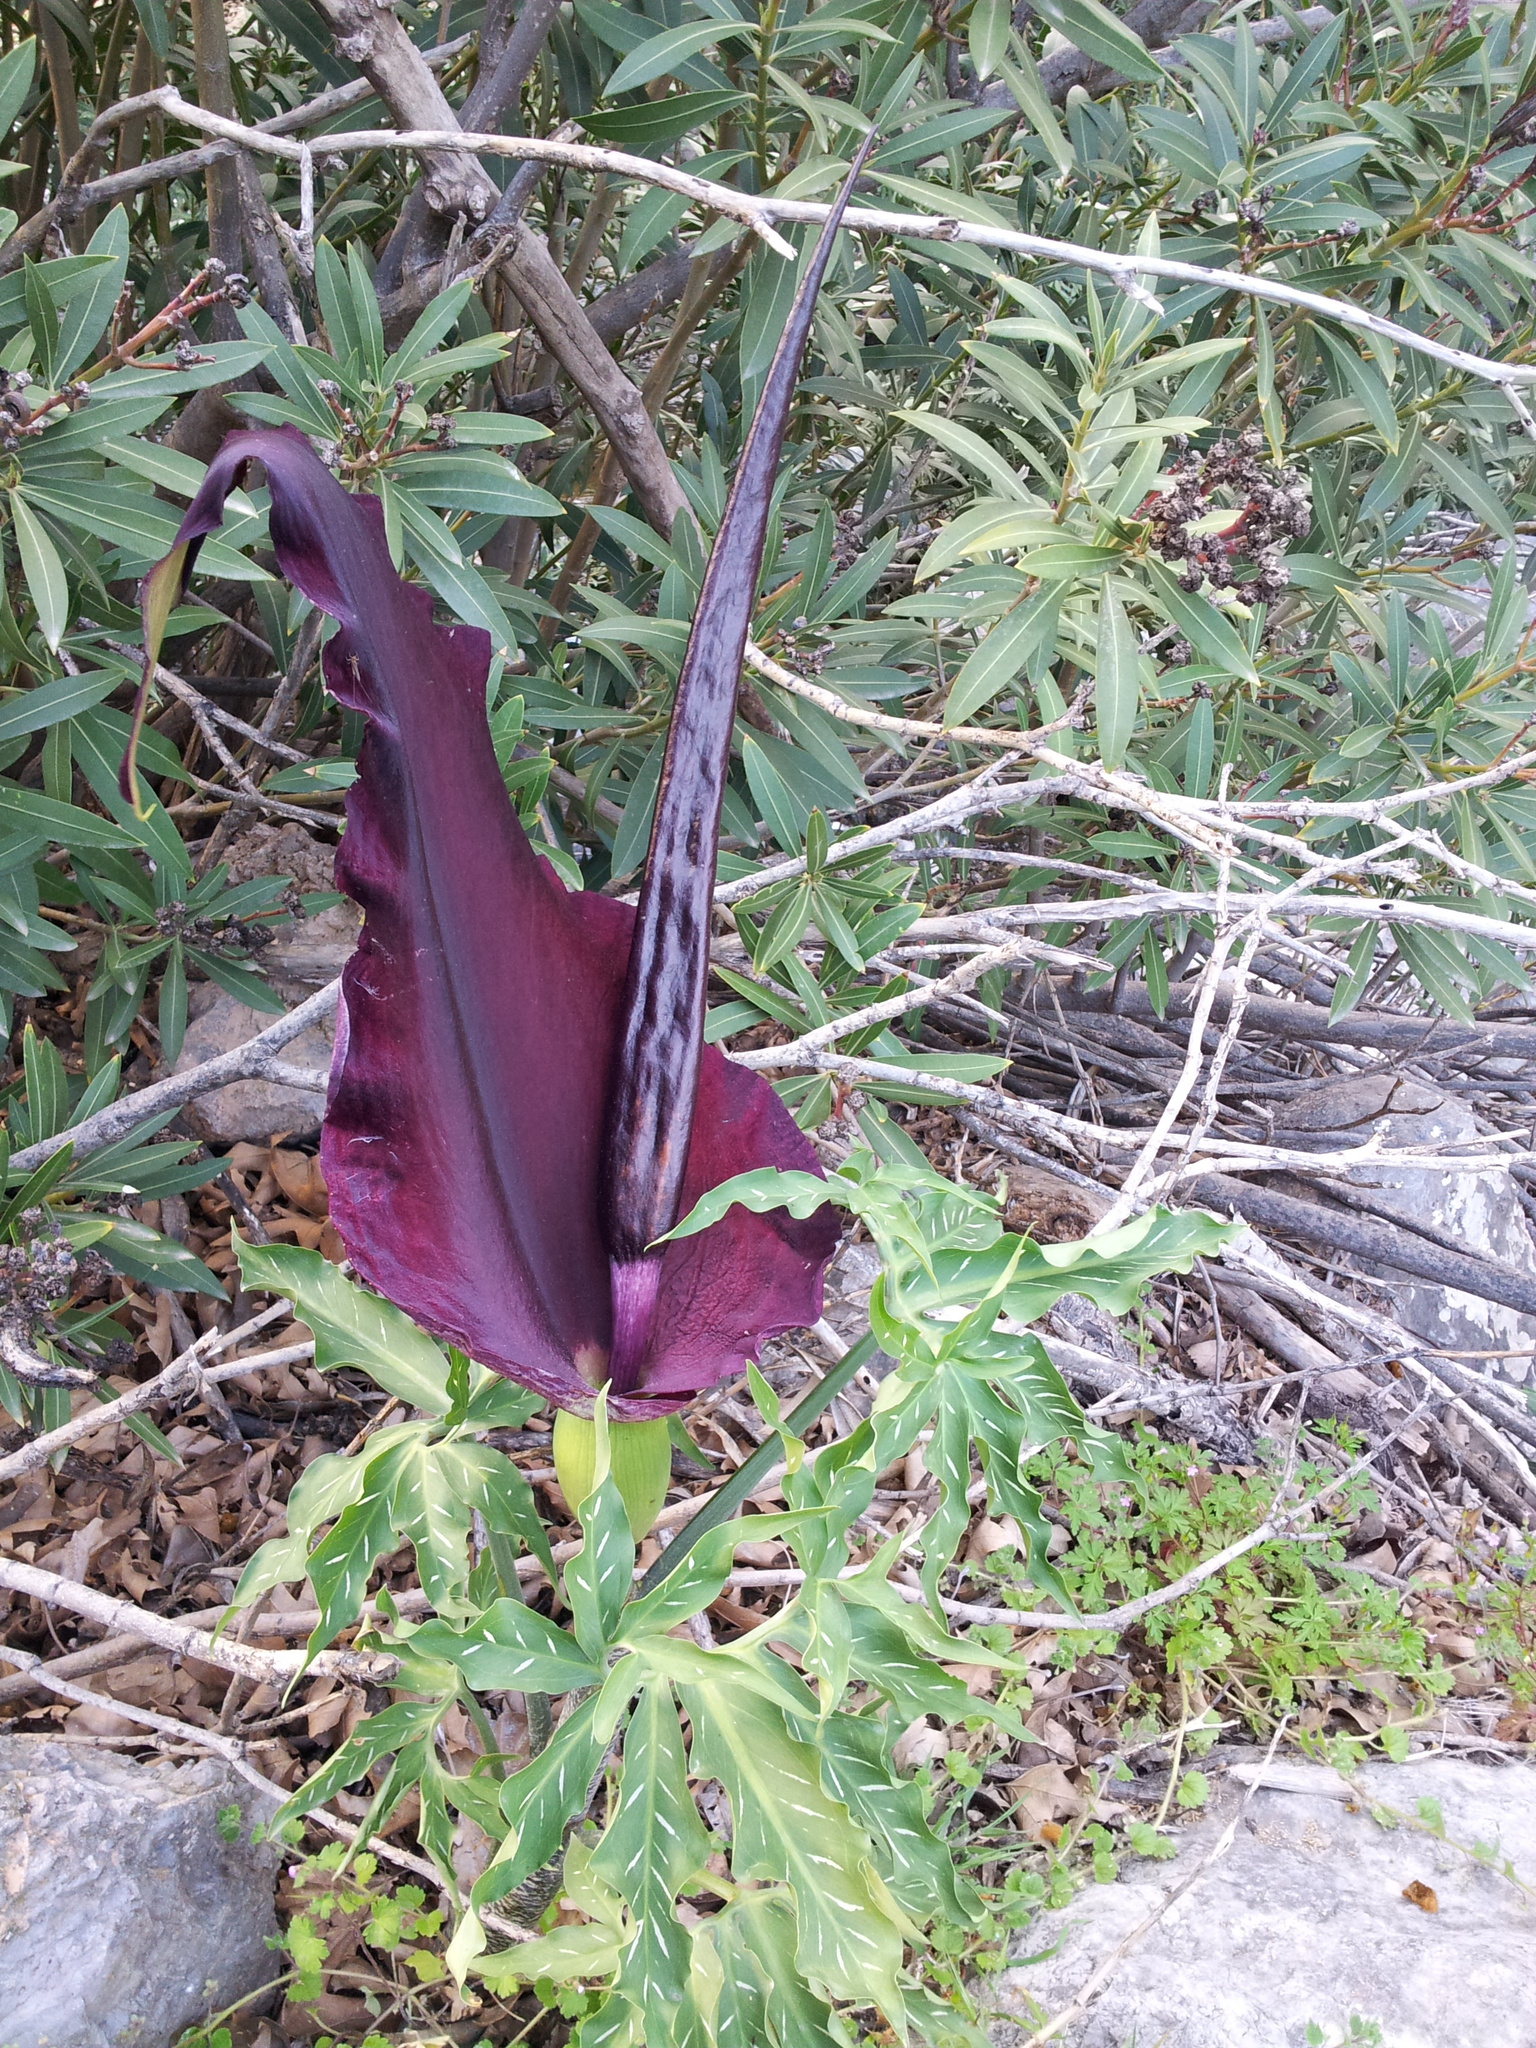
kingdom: Plantae
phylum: Tracheophyta
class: Liliopsida
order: Alismatales
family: Araceae
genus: Dracunculus
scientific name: Dracunculus vulgaris
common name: Dragon arum
